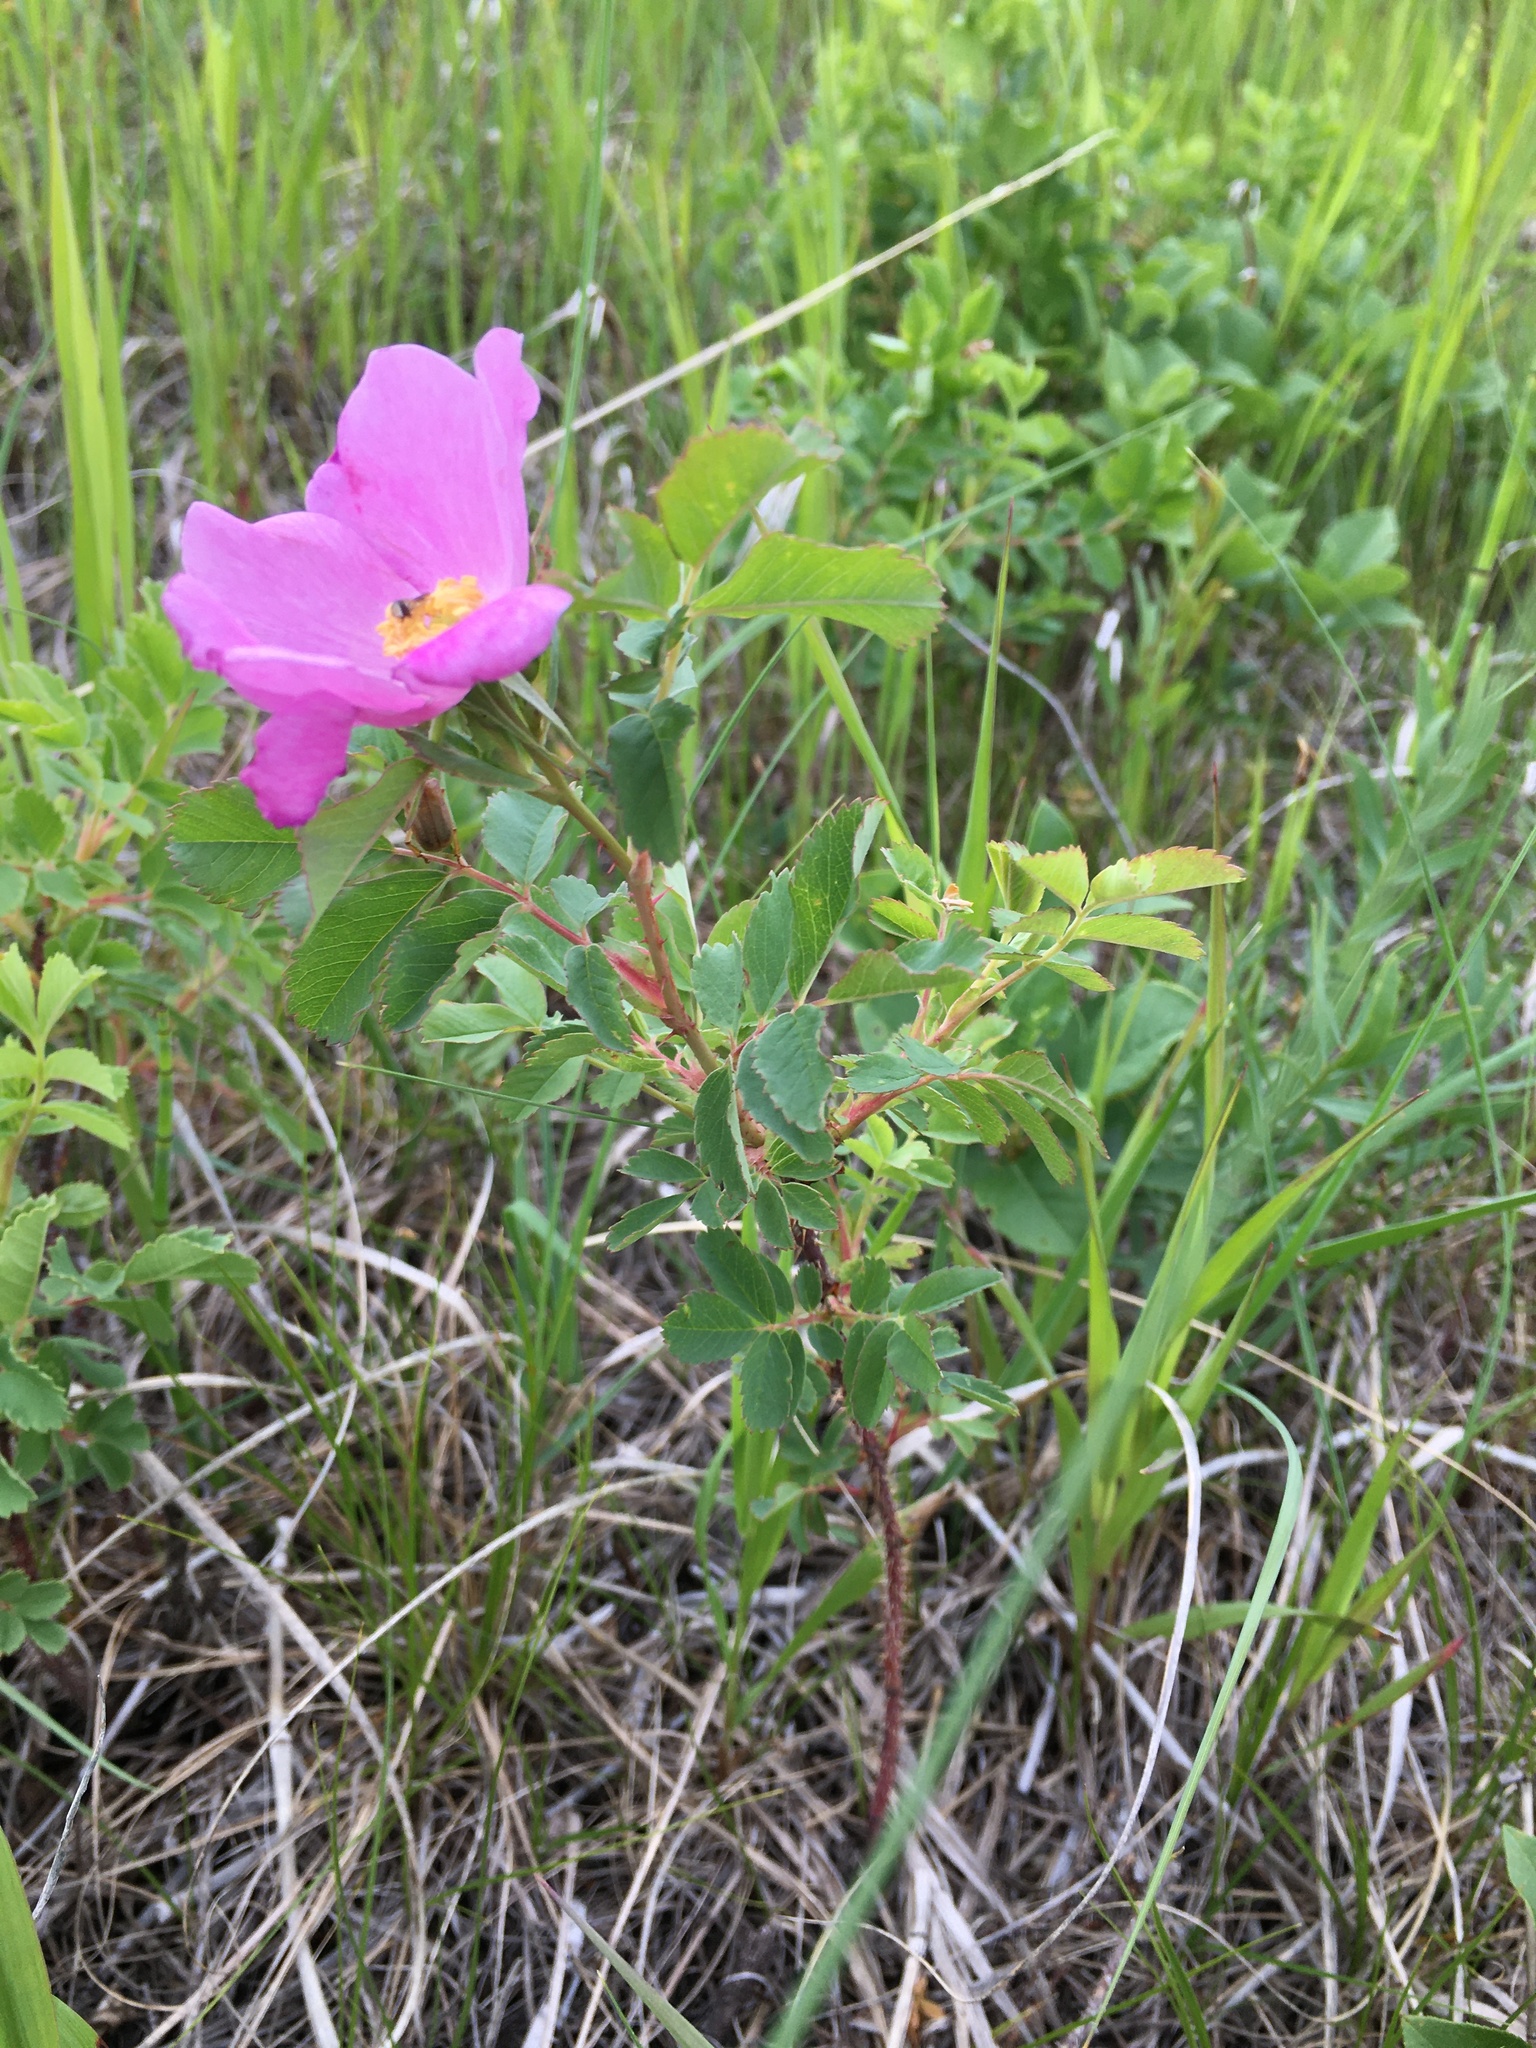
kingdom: Plantae
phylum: Tracheophyta
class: Magnoliopsida
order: Rosales
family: Rosaceae
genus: Rosa
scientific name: Rosa arkansana
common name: Prairie rose
